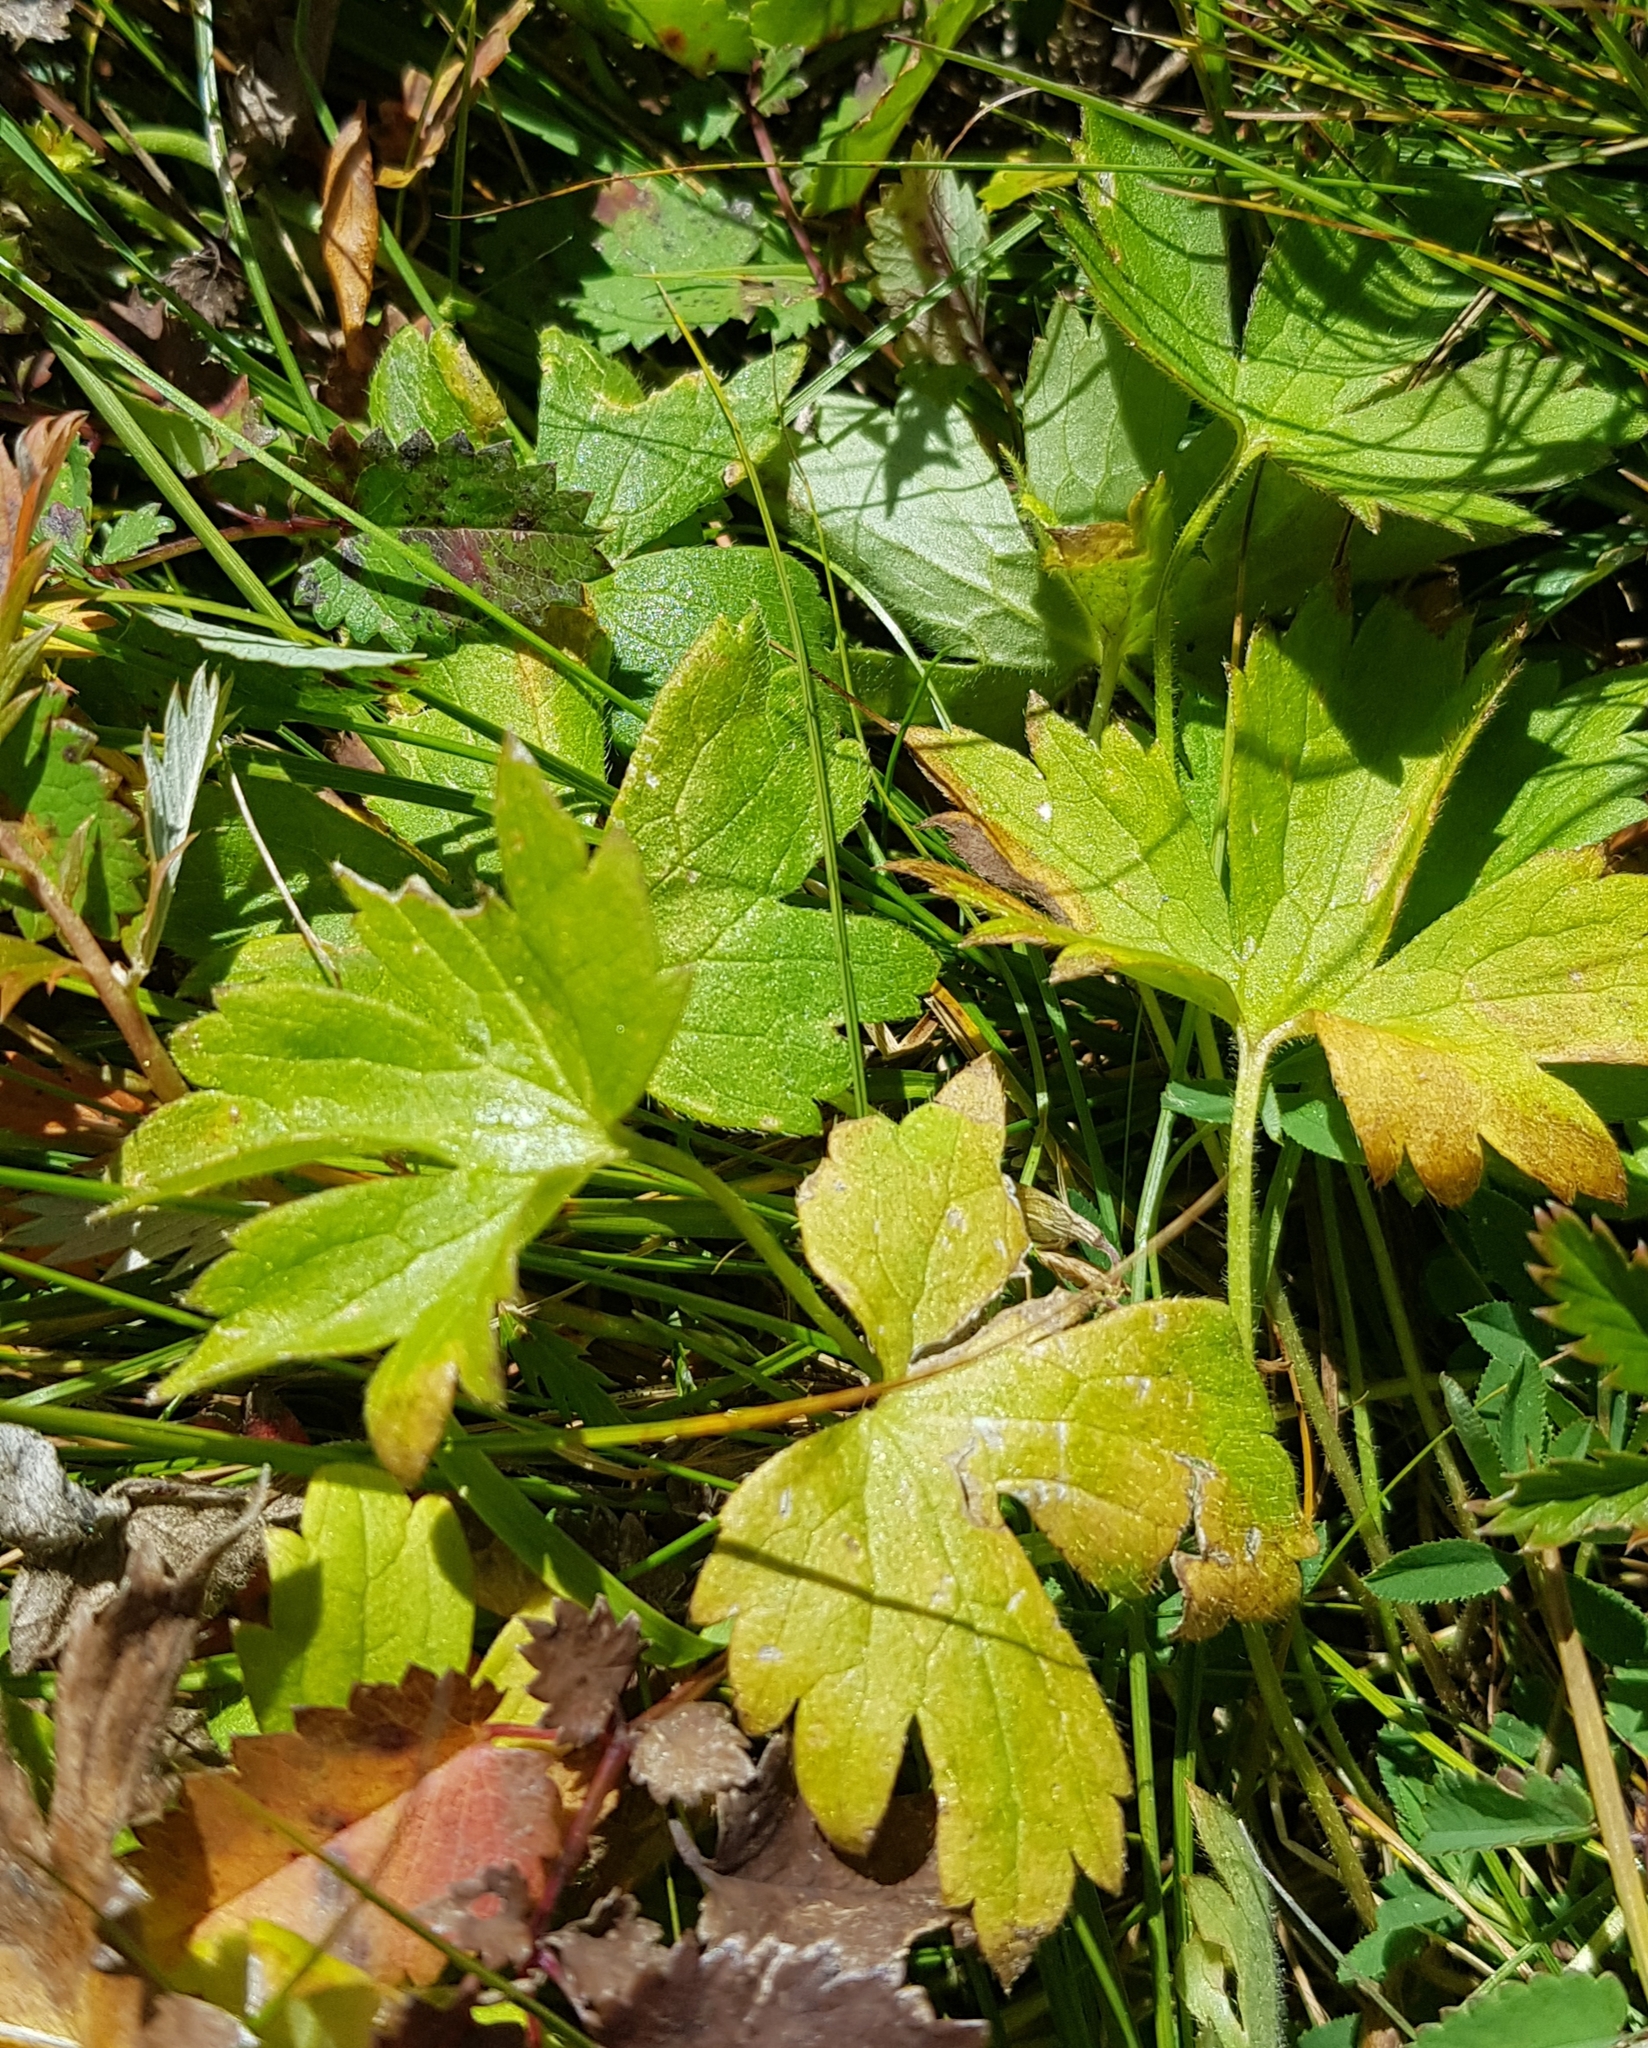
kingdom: Plantae
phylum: Tracheophyta
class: Magnoliopsida
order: Ranunculales
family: Ranunculaceae
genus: Ranunculus
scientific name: Ranunculus repens
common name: Creeping buttercup
